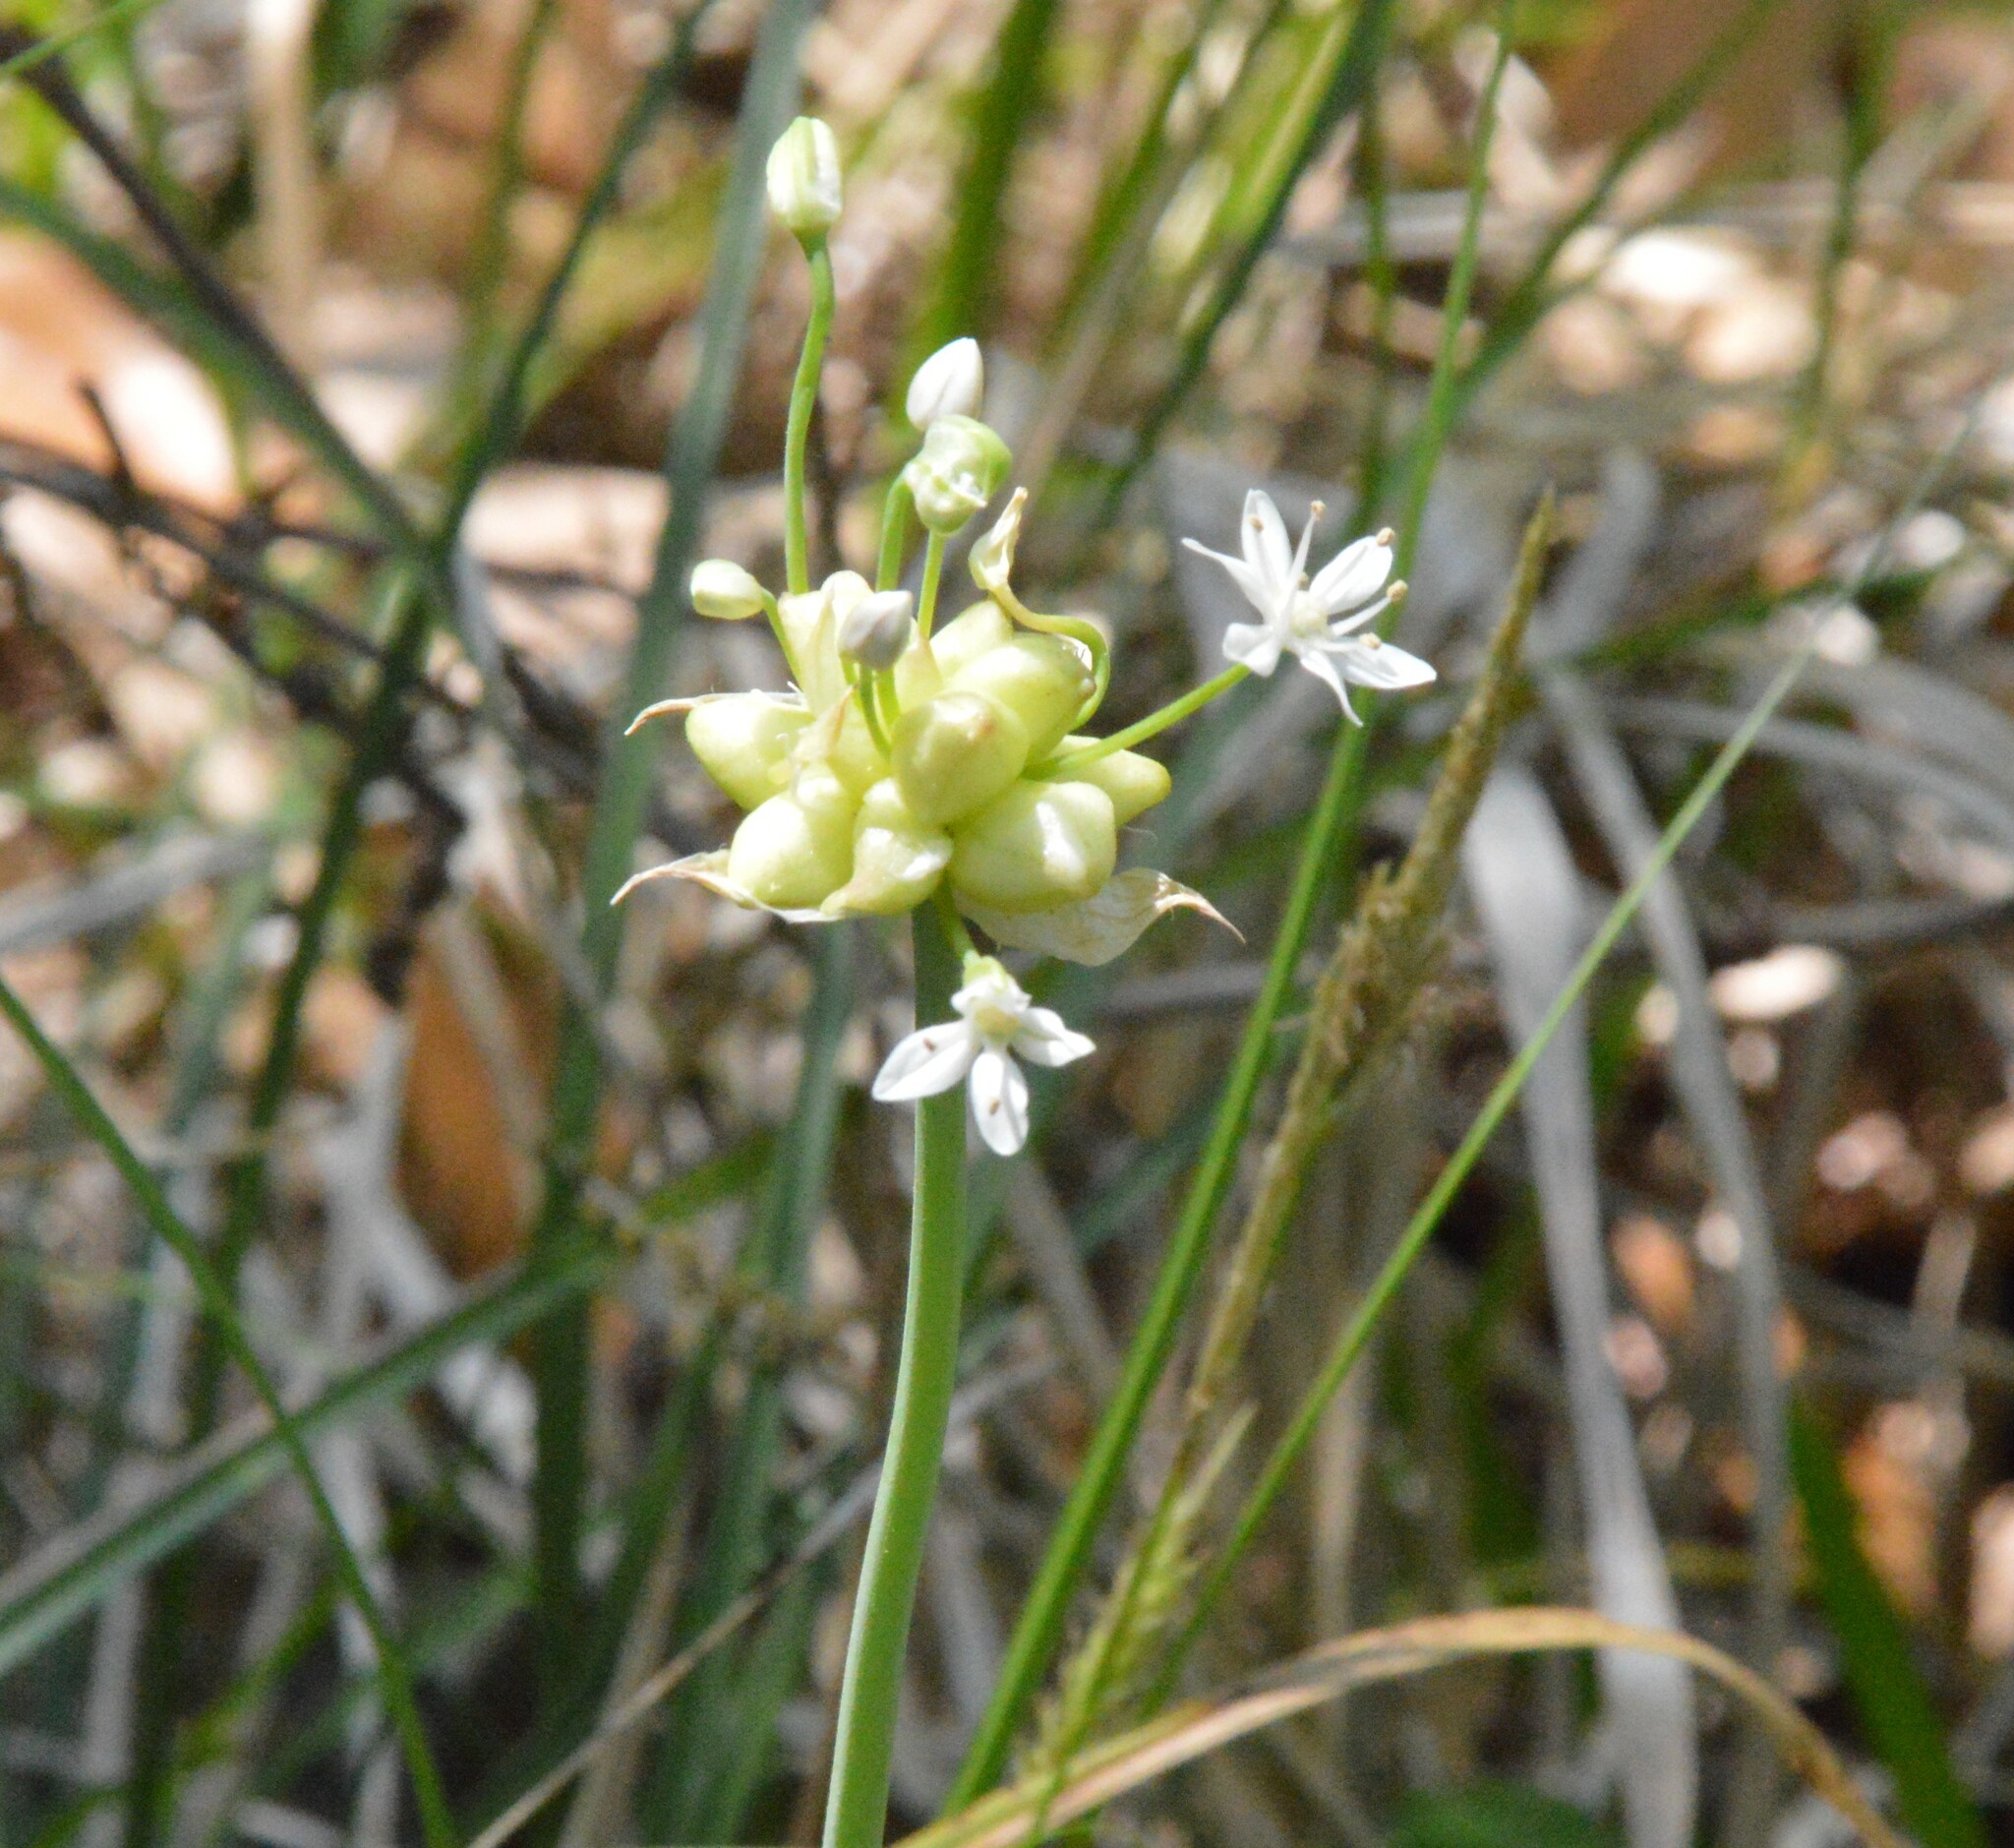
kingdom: Plantae
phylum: Tracheophyta
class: Liliopsida
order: Asparagales
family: Amaryllidaceae
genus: Allium
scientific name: Allium canadense
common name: Meadow garlic
